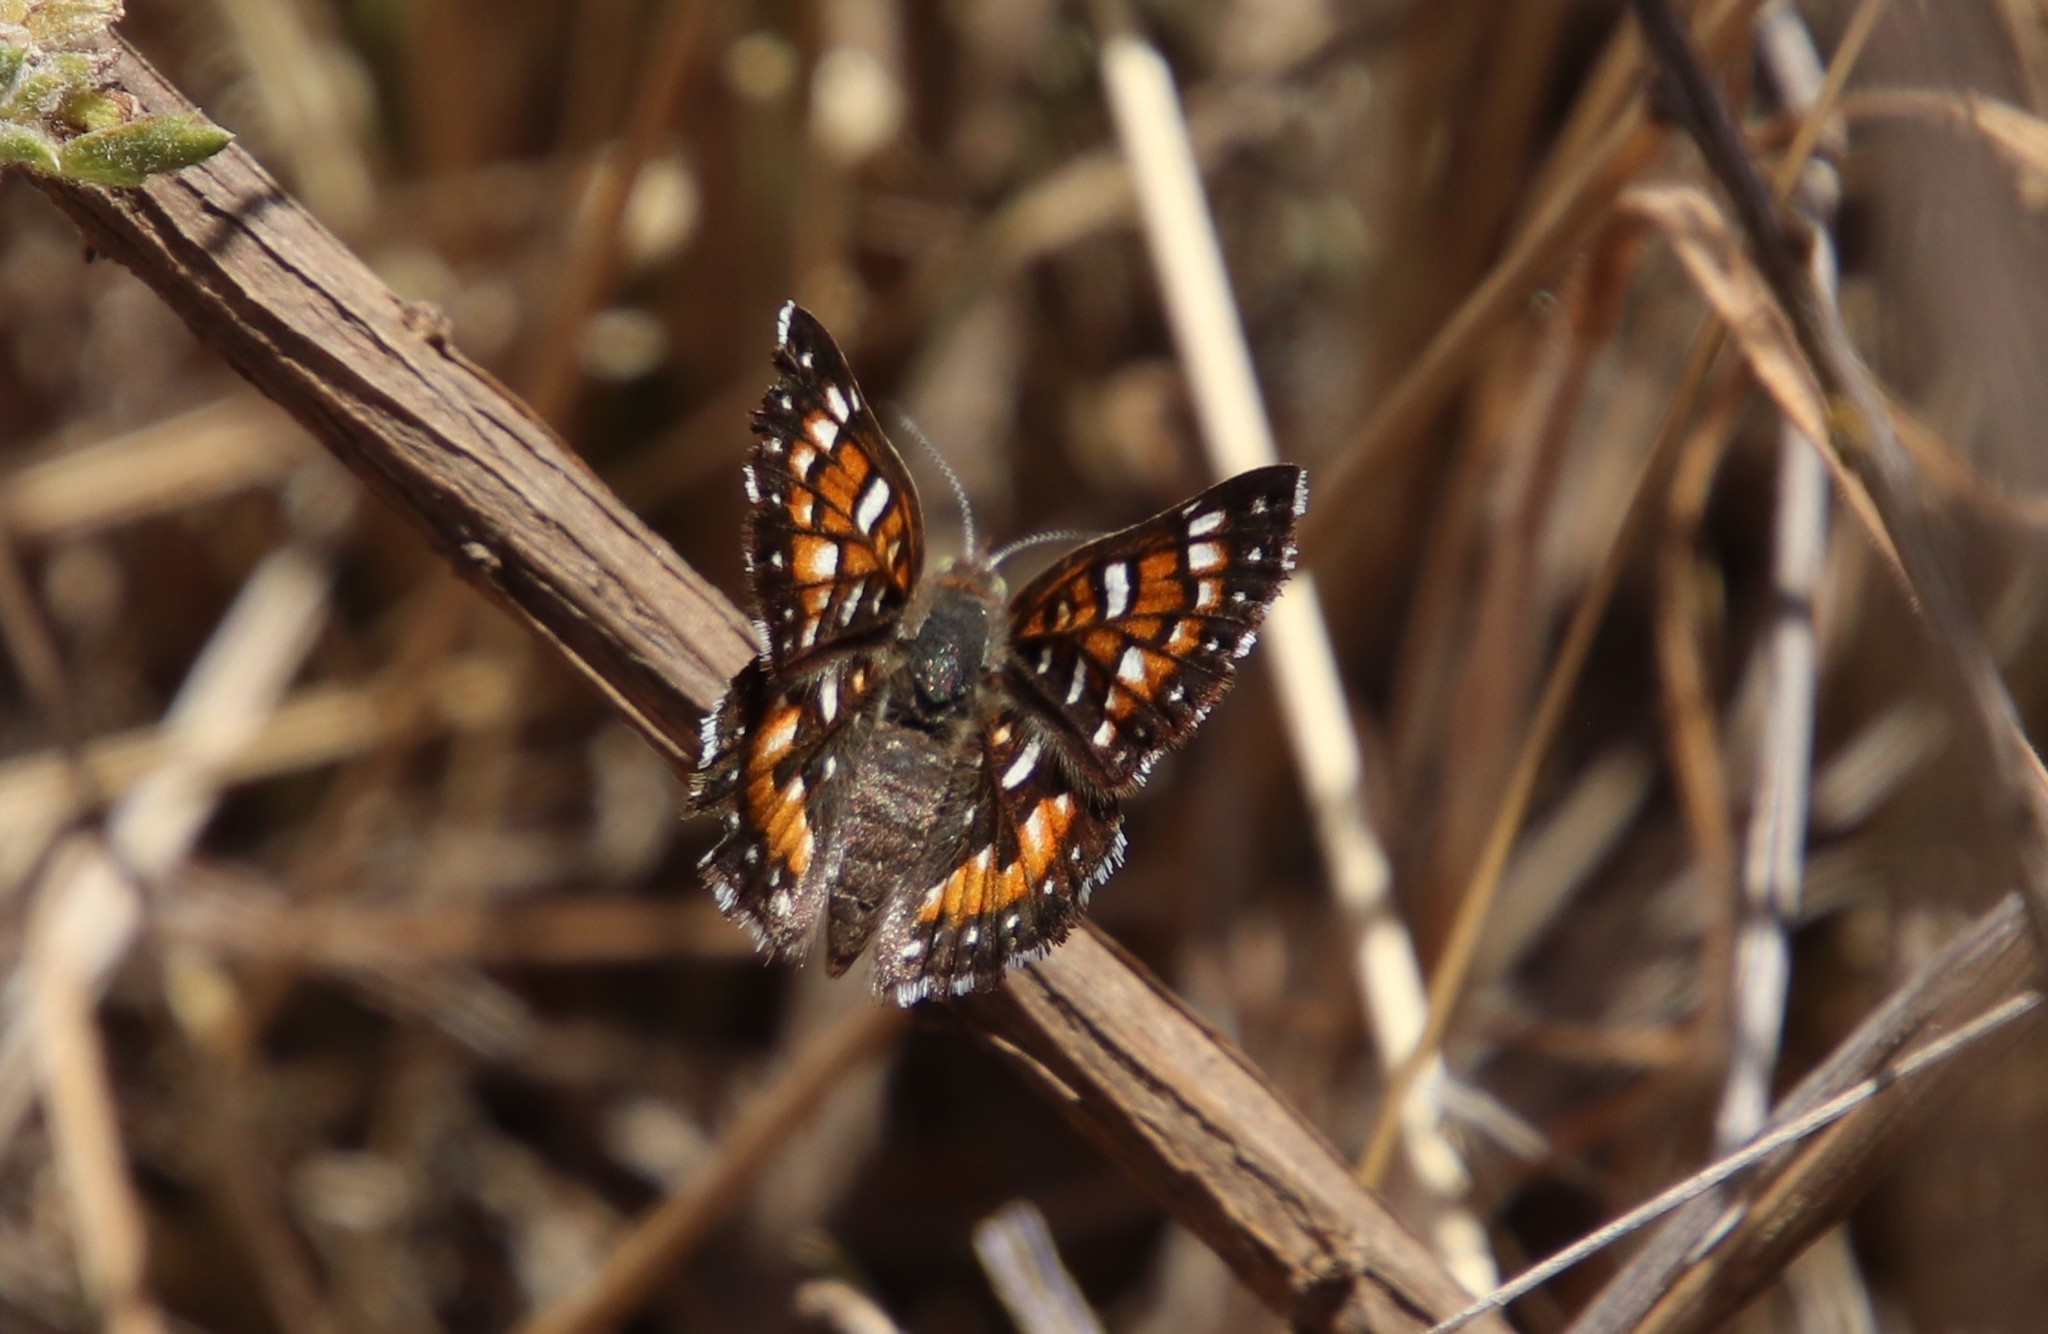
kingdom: Animalia
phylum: Arthropoda
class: Insecta
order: Lepidoptera
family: Riodinidae
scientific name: Riodinidae
